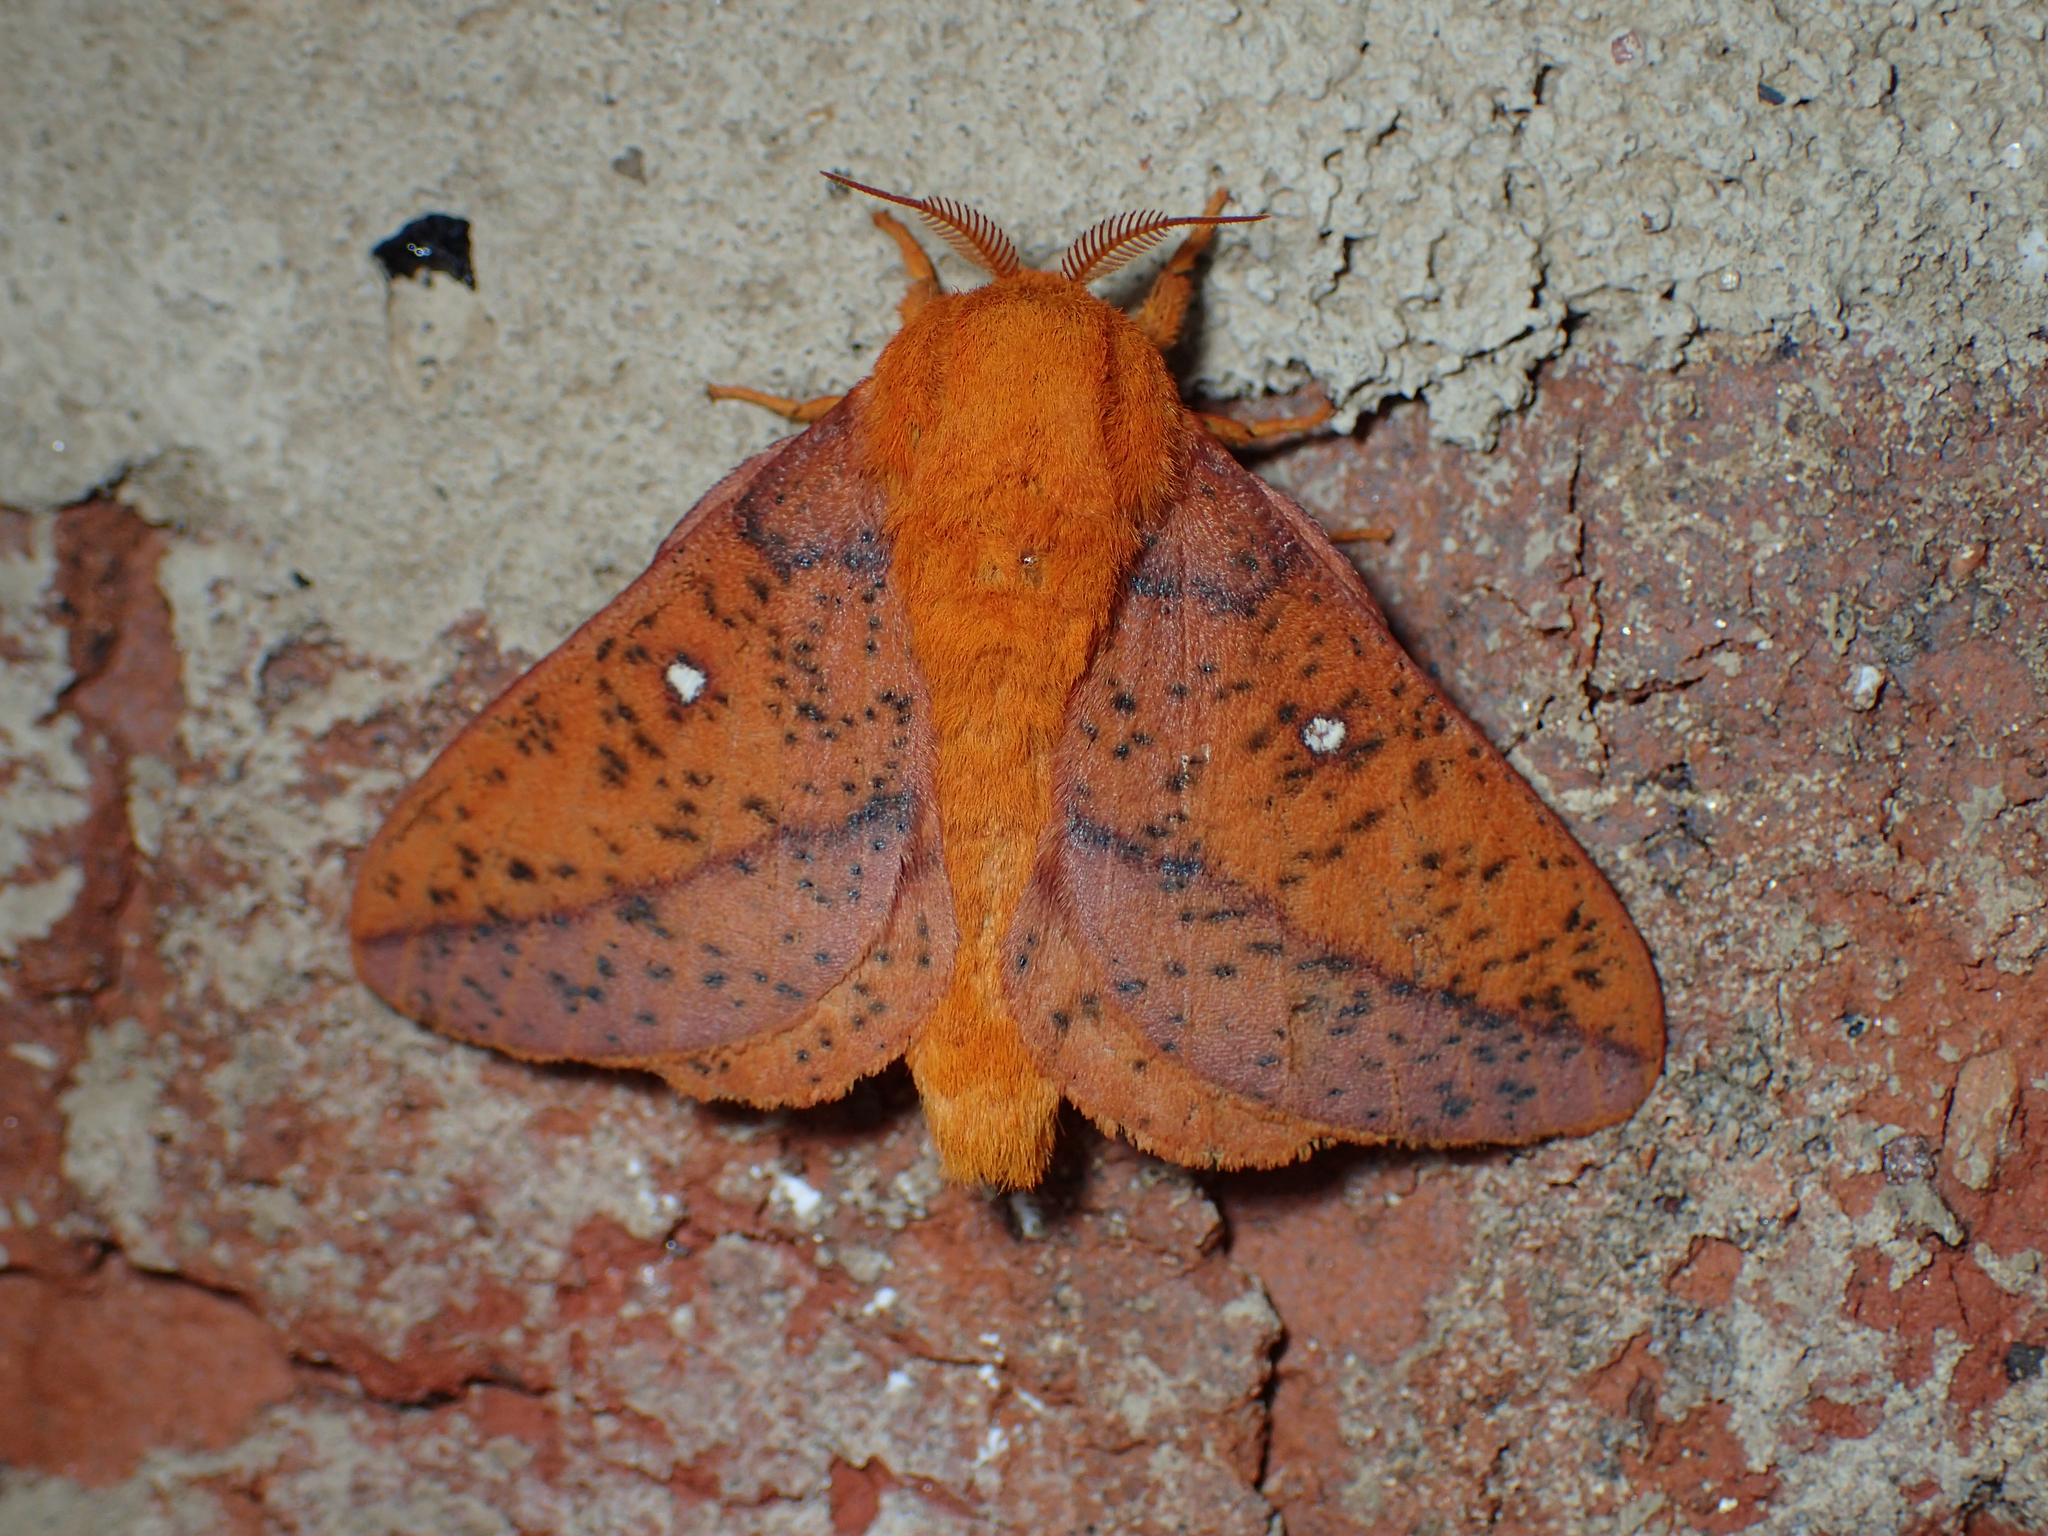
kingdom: Animalia
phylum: Arthropoda
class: Insecta
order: Lepidoptera
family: Saturniidae
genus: Anisota
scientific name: Anisota stigma
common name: Spiny oakworm moth
